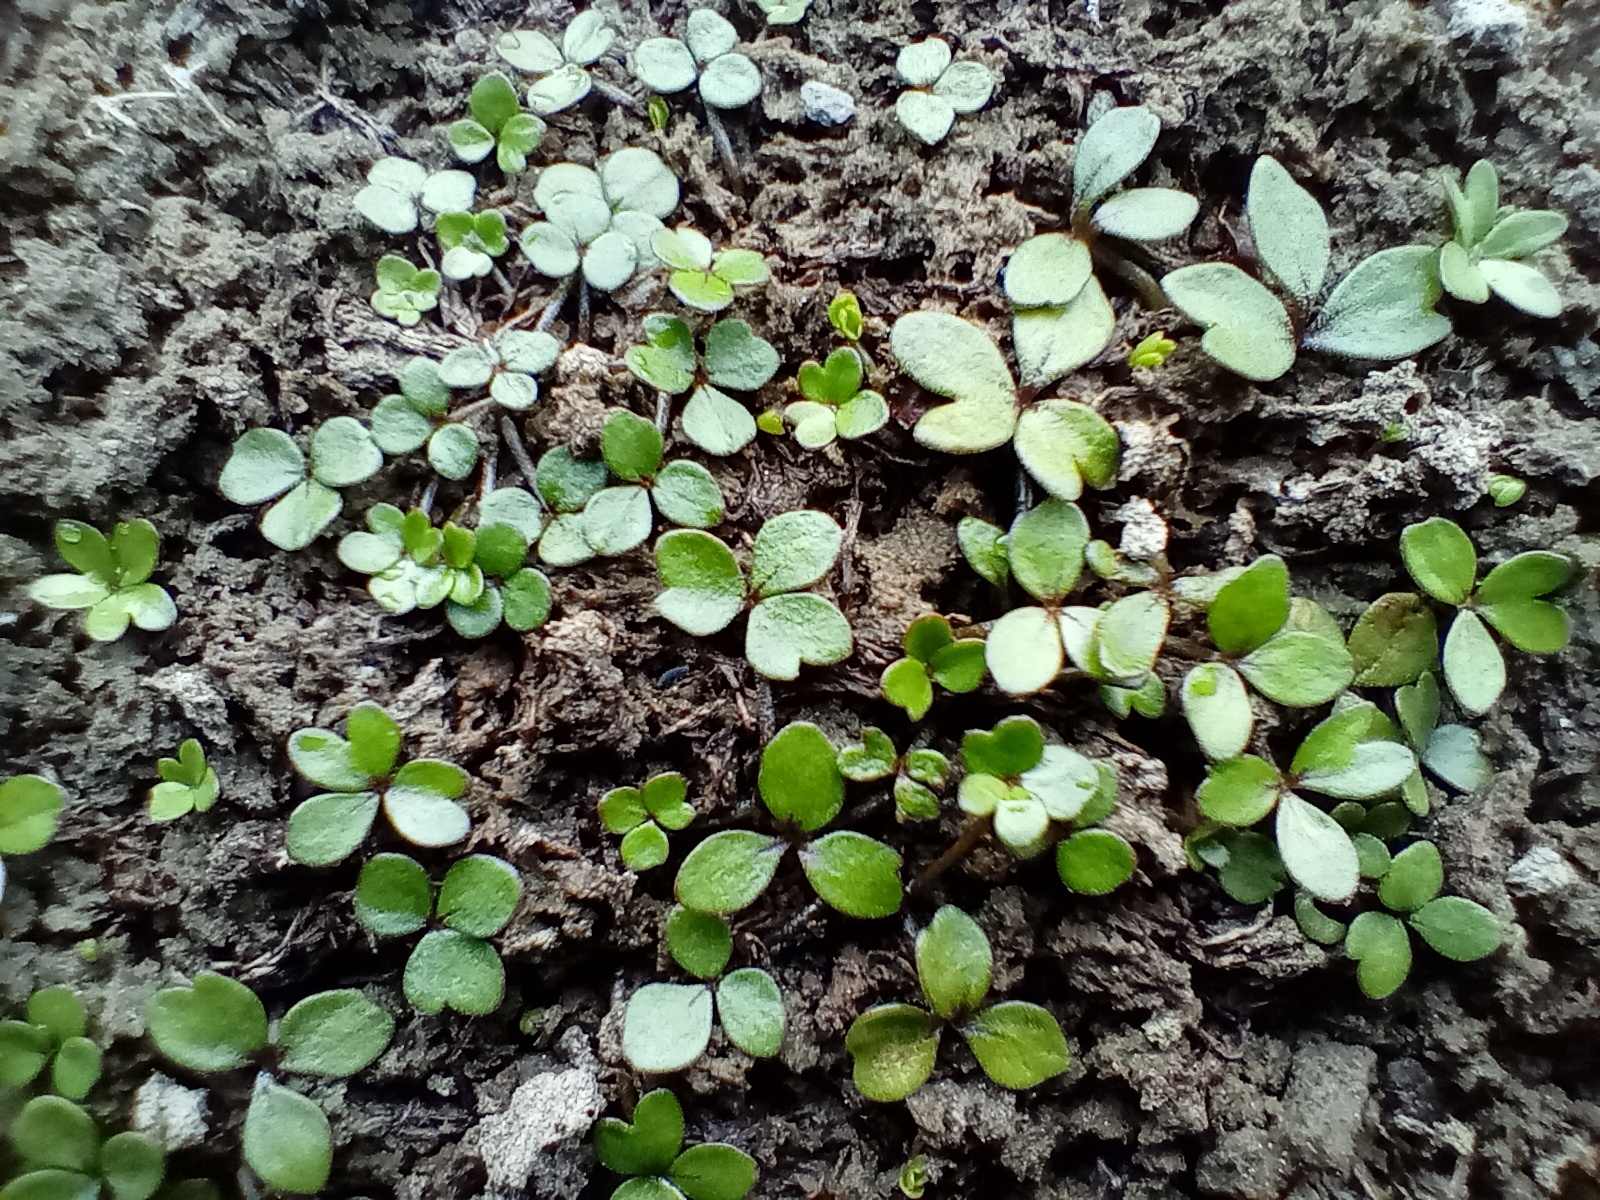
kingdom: Plantae
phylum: Tracheophyta
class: Magnoliopsida
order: Apiales
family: Apiaceae
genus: Azorella
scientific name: Azorella nitens
